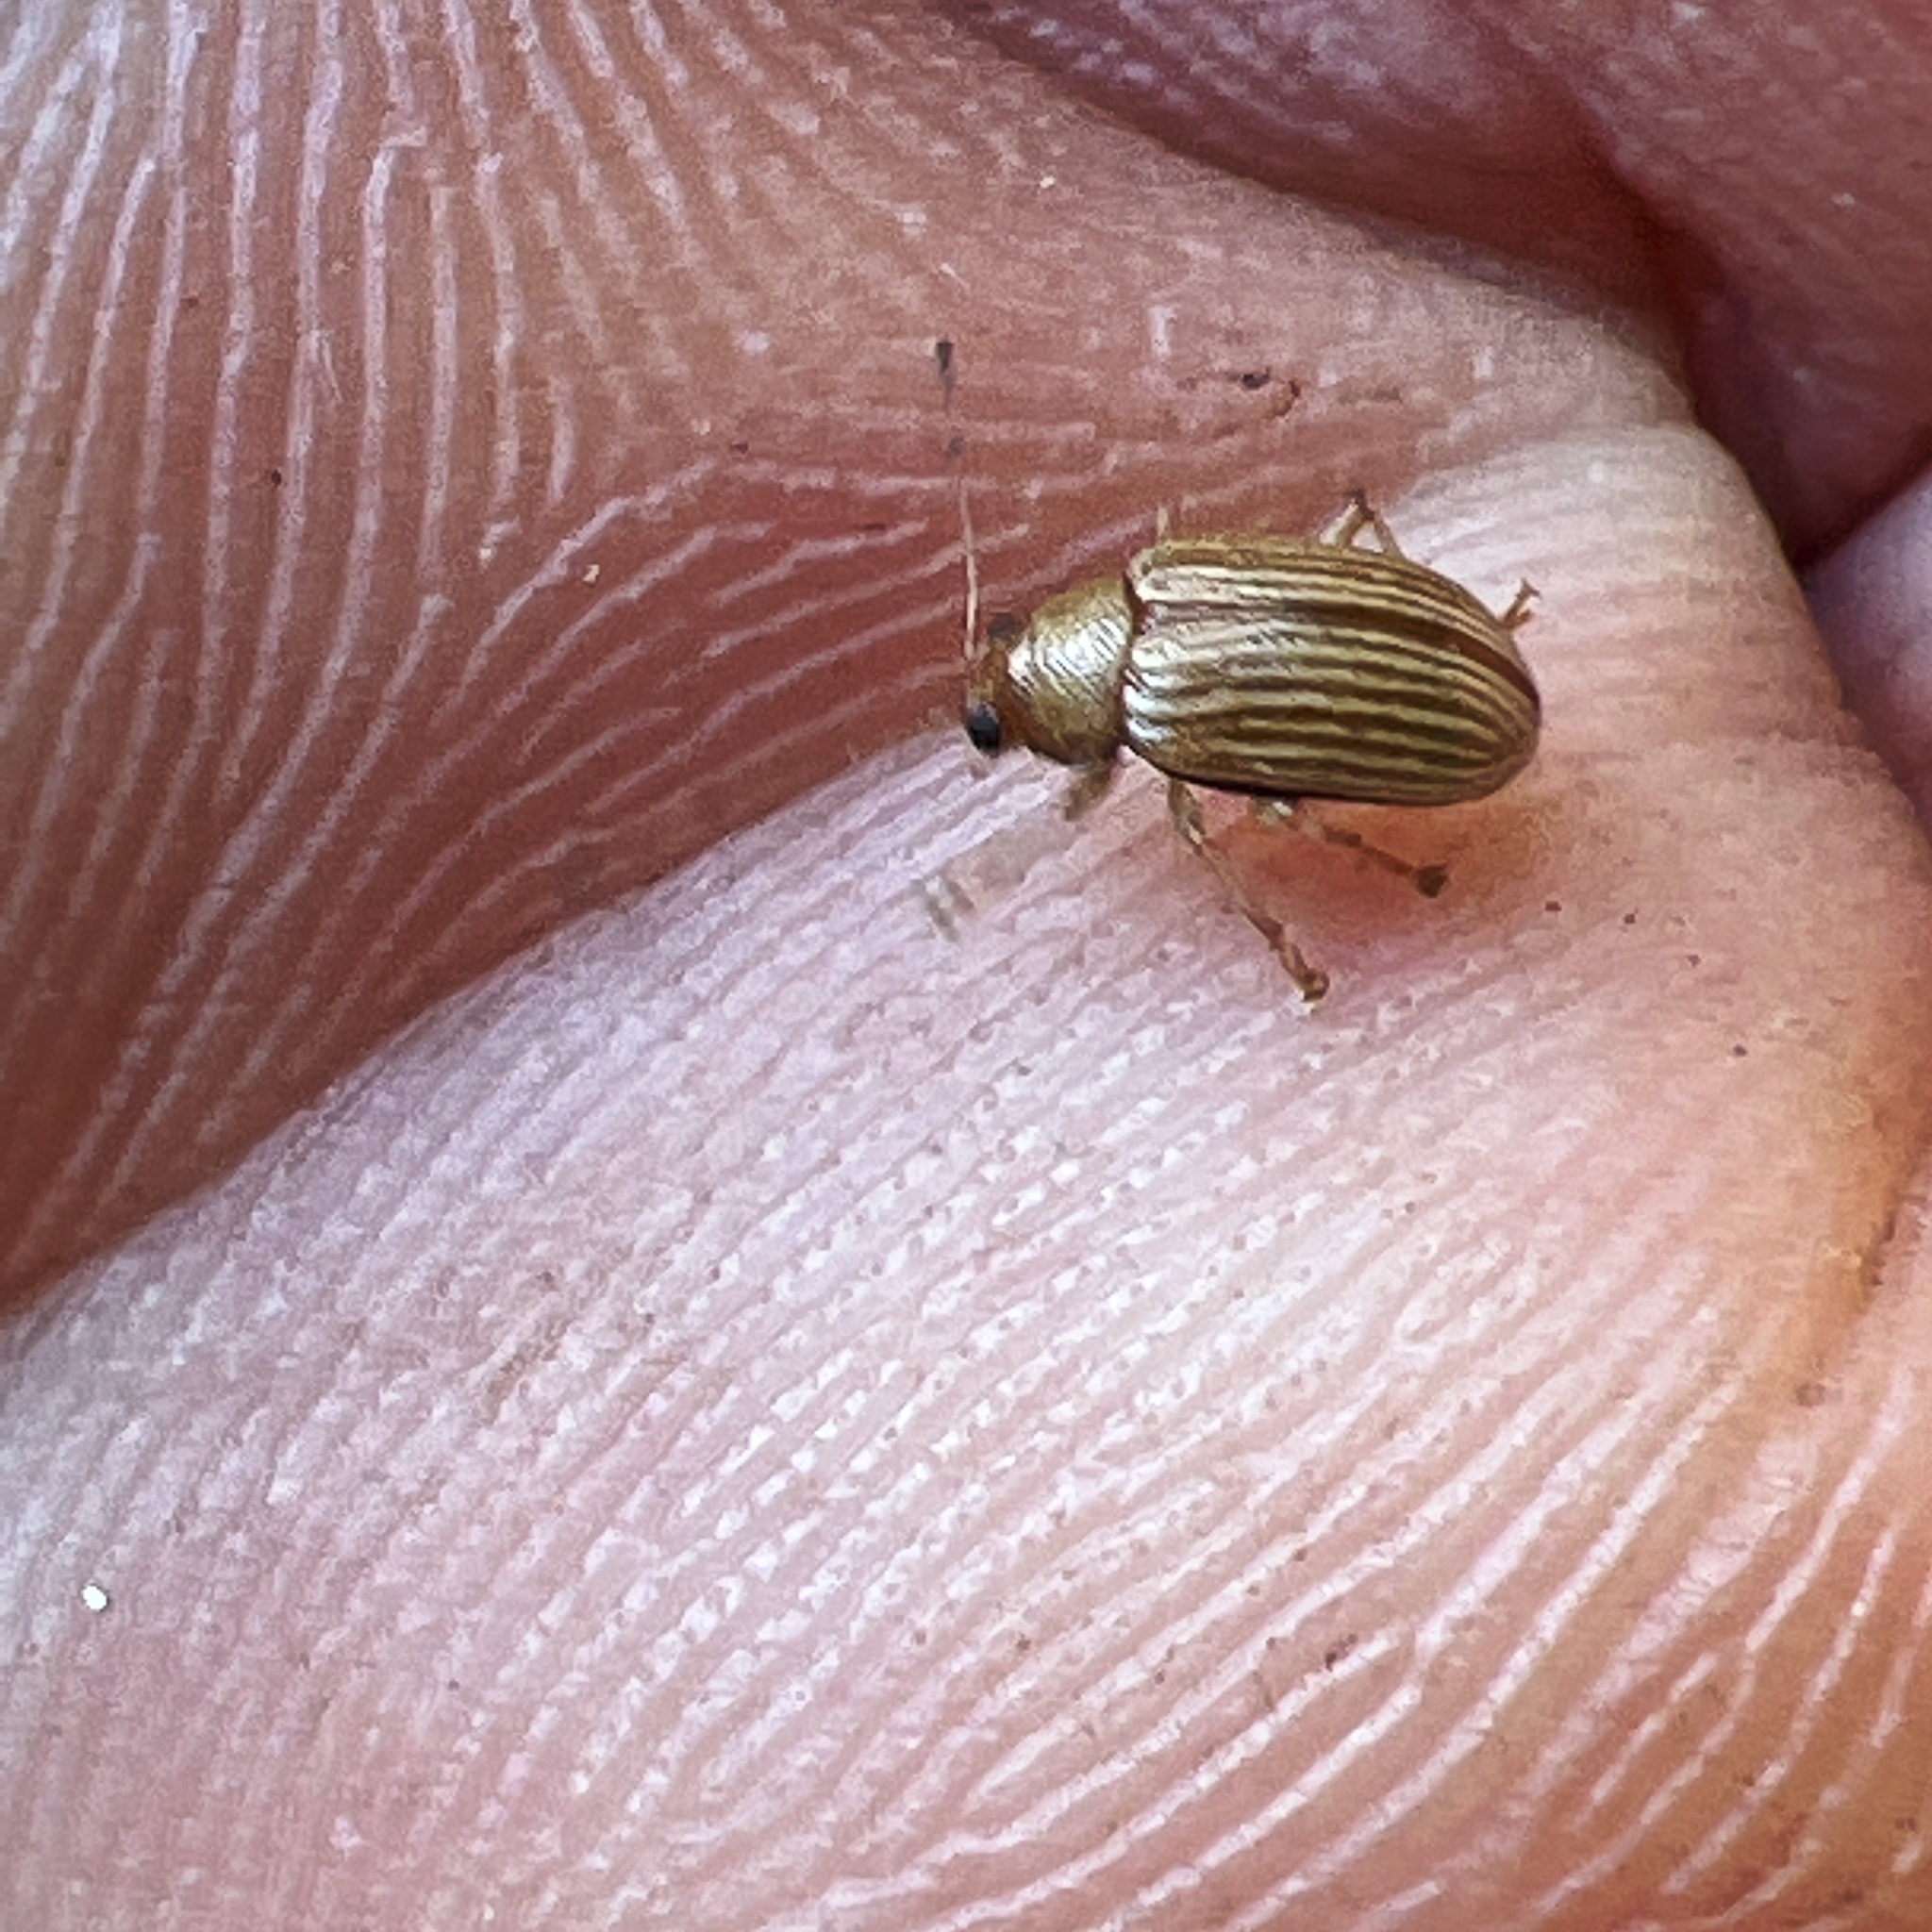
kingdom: Animalia
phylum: Arthropoda
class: Insecta
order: Coleoptera
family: Chrysomelidae
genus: Colaspis
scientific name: Colaspis brunnea
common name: Grape colaspis
